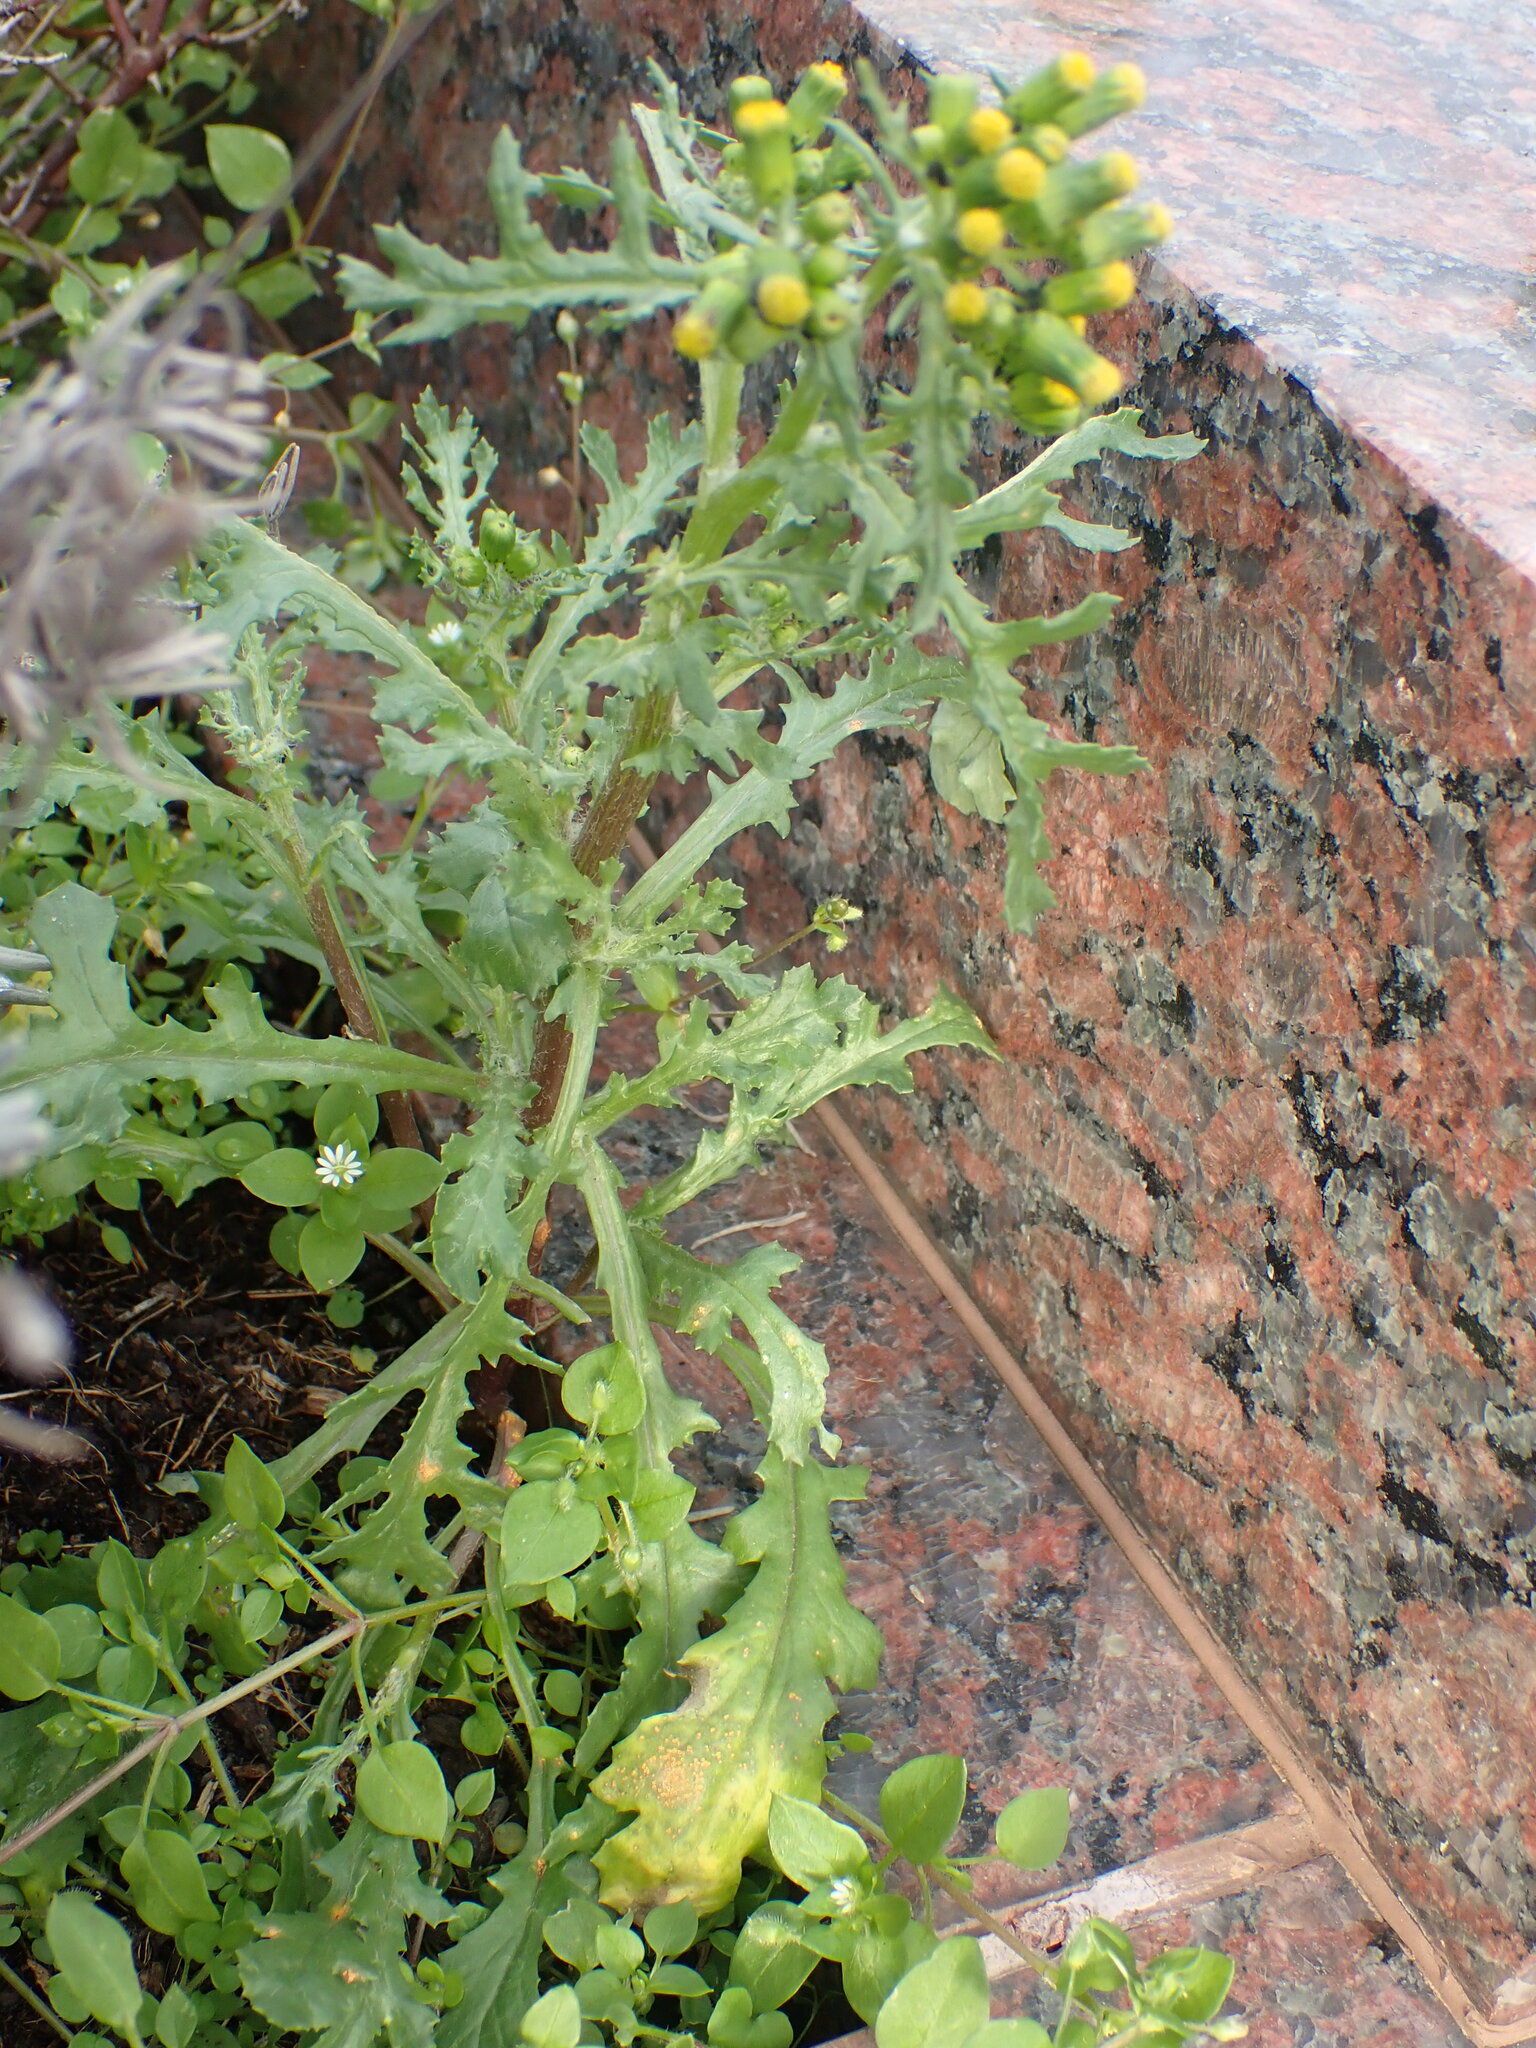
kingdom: Fungi
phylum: Basidiomycota
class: Pucciniomycetes
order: Pucciniales
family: Pucciniaceae
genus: Puccinia
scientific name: Puccinia lagenophorae
